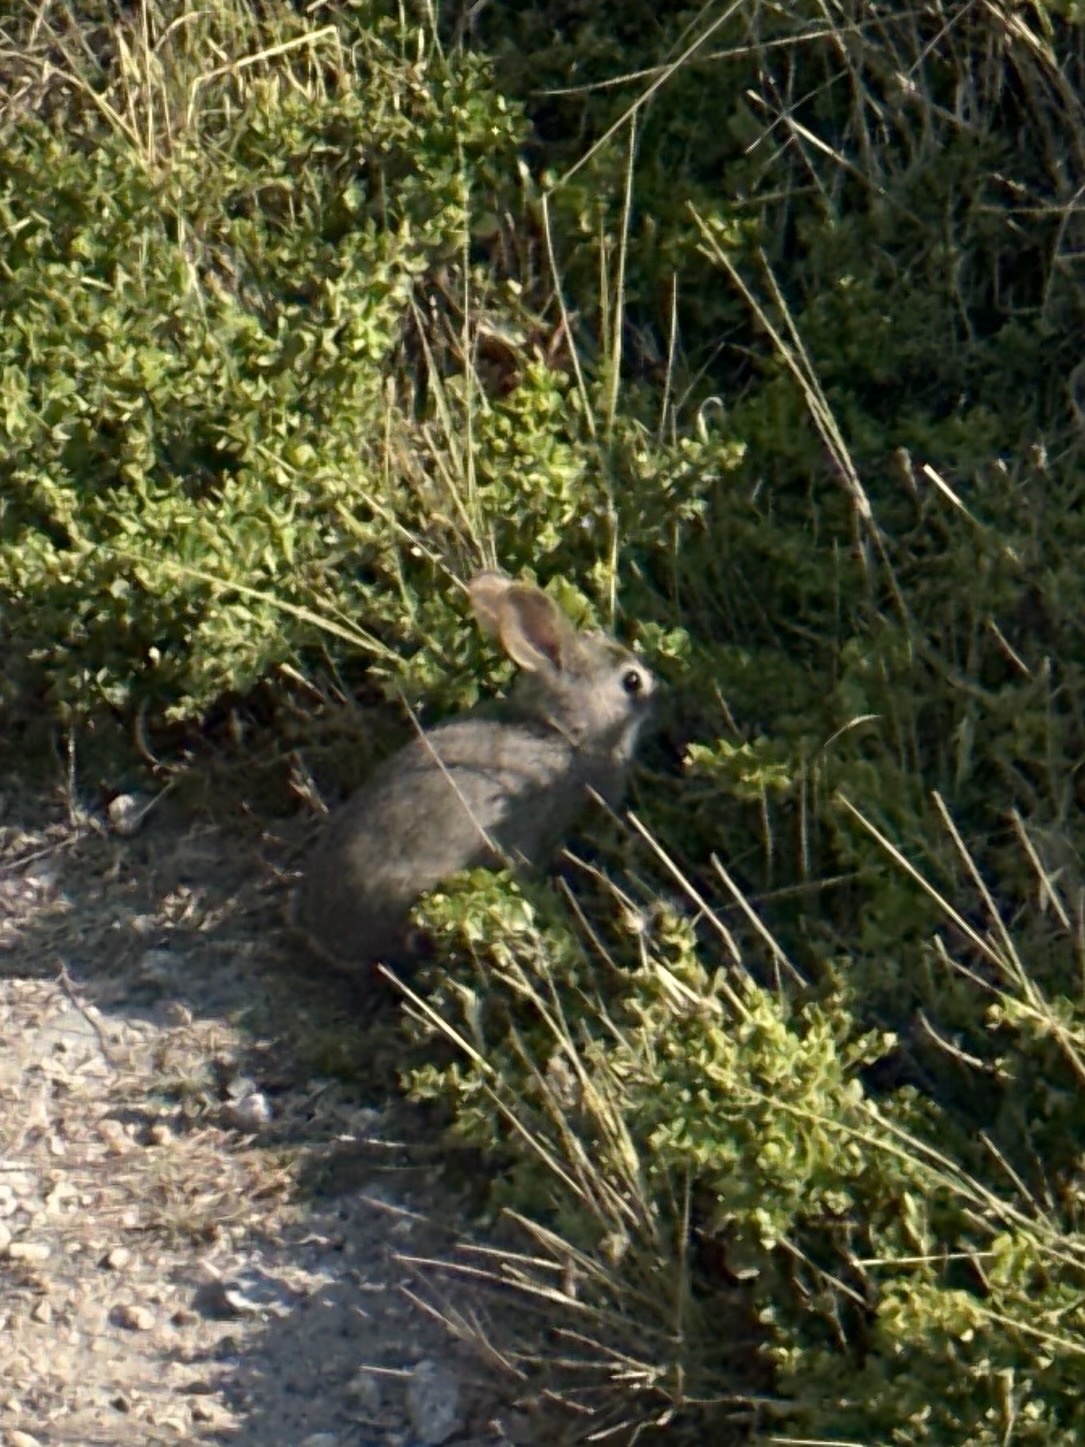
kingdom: Animalia
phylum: Chordata
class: Mammalia
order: Lagomorpha
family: Leporidae
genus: Sylvilagus
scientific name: Sylvilagus bachmani
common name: Brush rabbit
